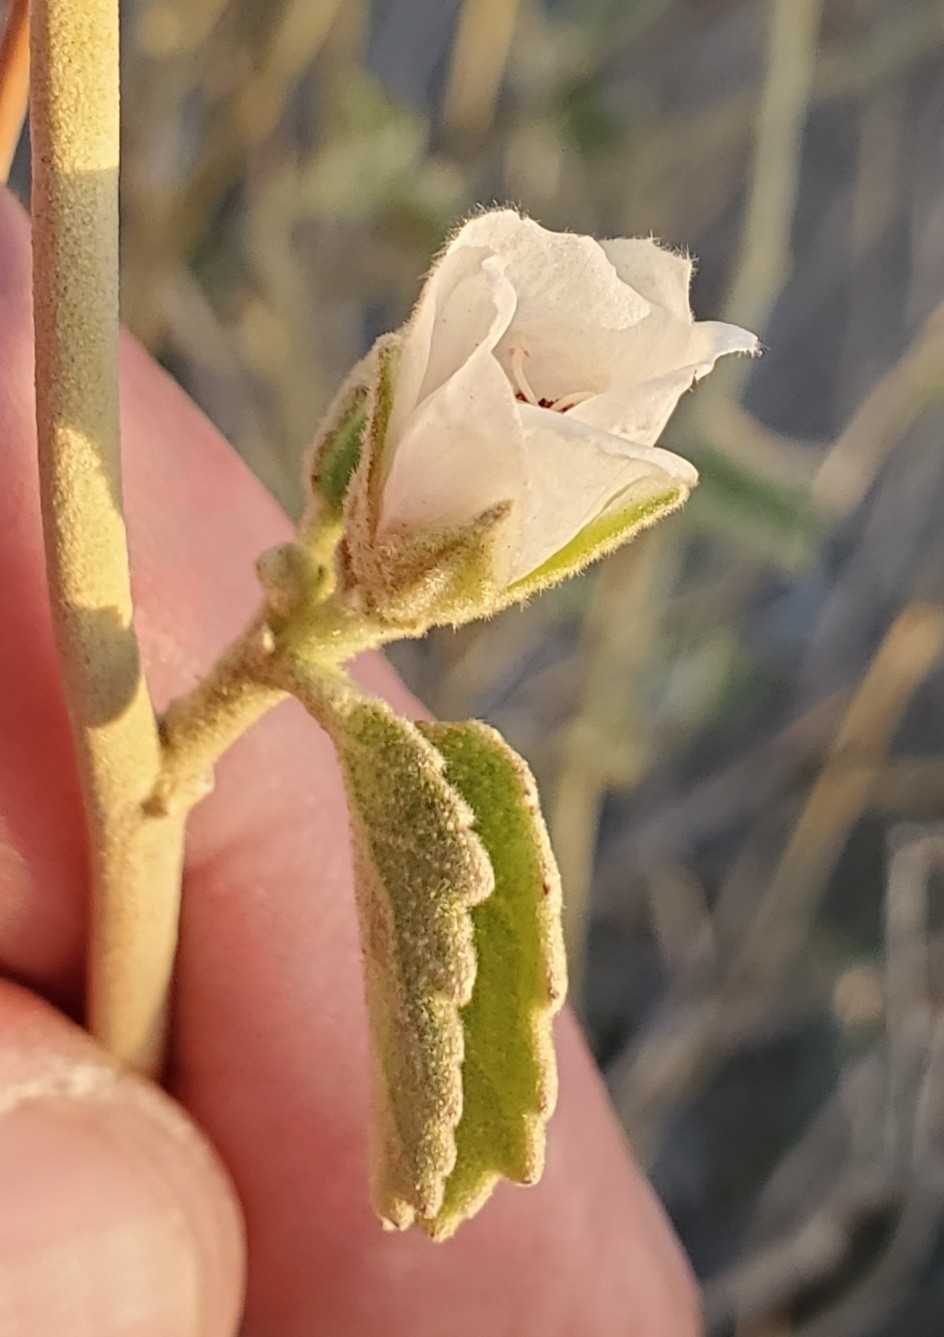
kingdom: Plantae
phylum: Tracheophyta
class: Magnoliopsida
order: Malvales
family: Malvaceae
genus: Hibiscus
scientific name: Hibiscus denudatus
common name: Paleface
